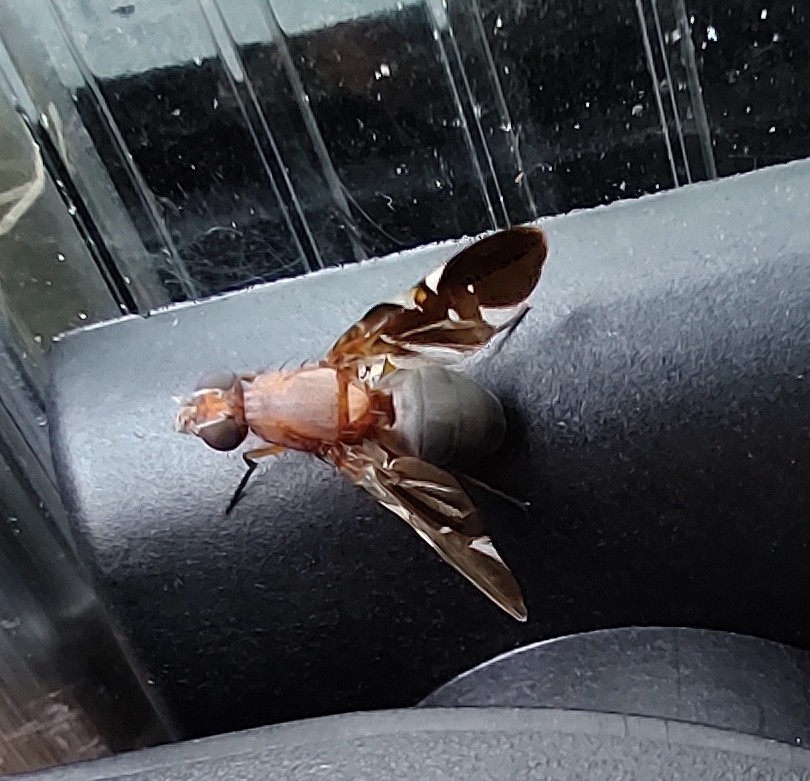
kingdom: Animalia
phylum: Arthropoda
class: Insecta
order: Diptera
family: Ulidiidae
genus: Delphinia
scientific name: Delphinia picta
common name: Common picture-winged fly
